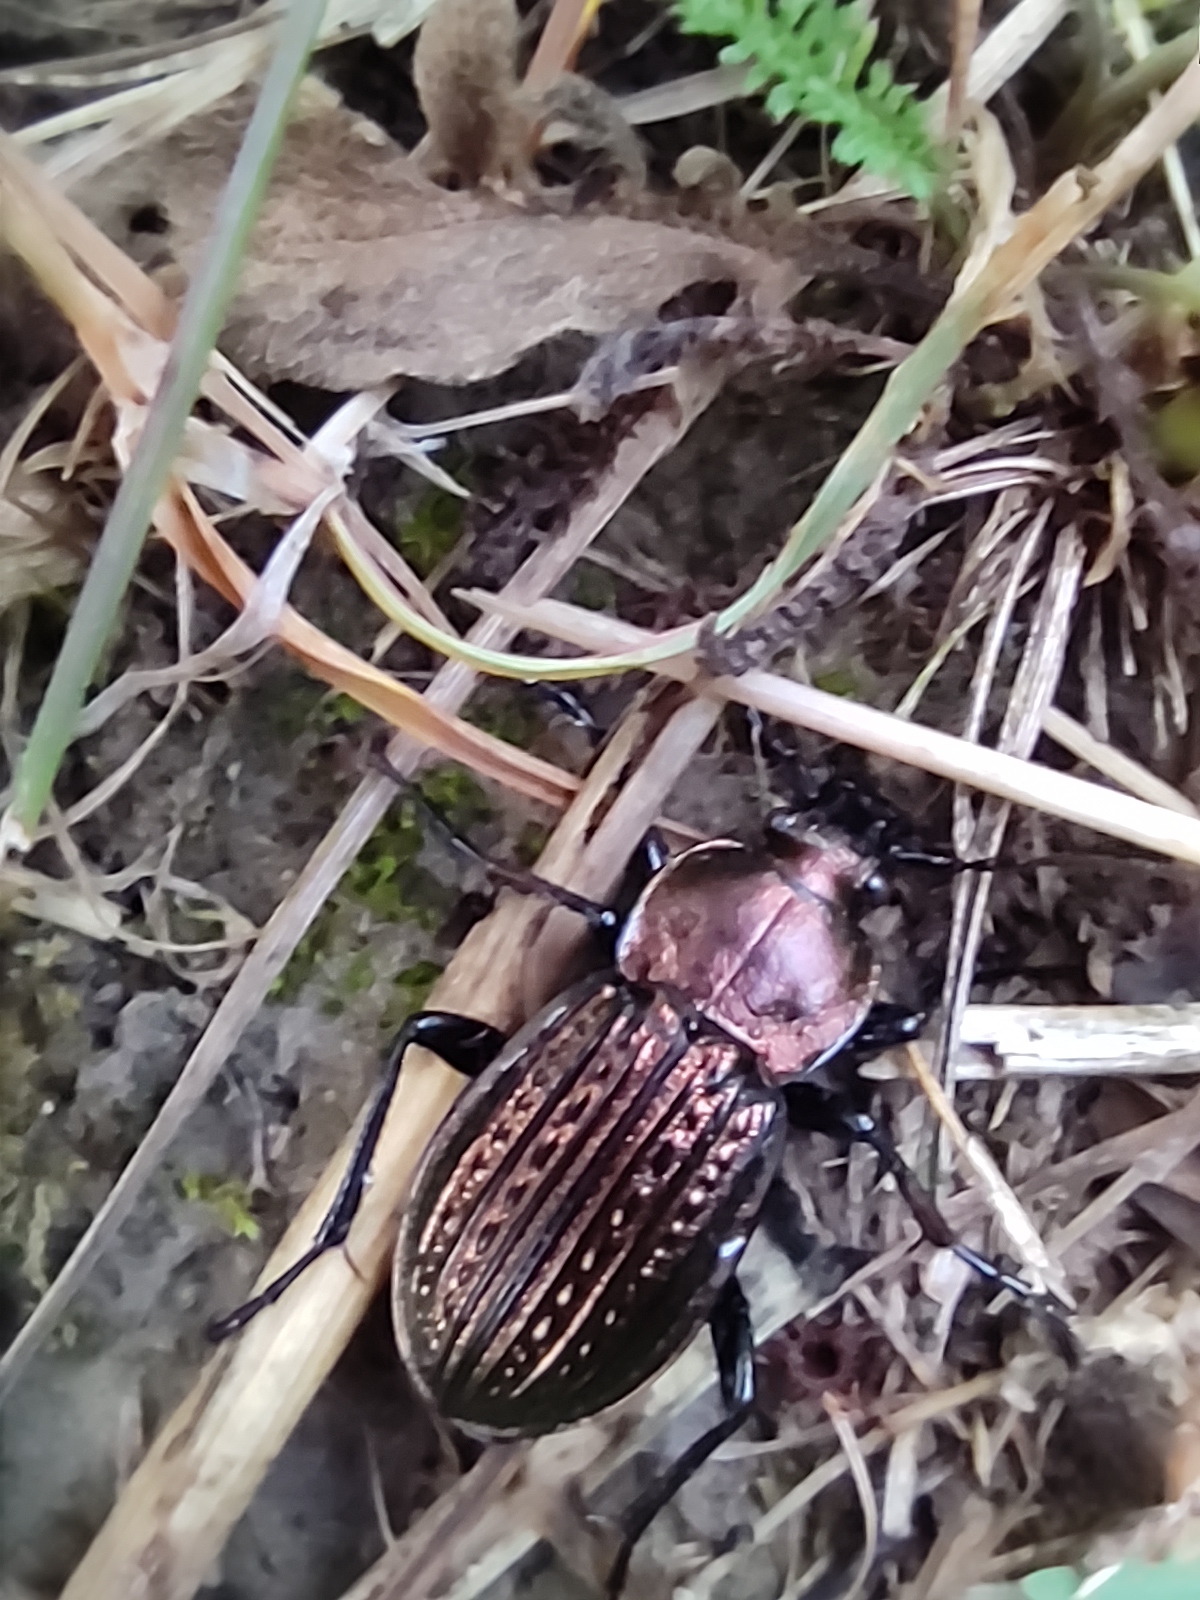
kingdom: Animalia
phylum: Arthropoda
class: Insecta
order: Coleoptera
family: Carabidae
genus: Carabus
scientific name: Carabus ulrichii
